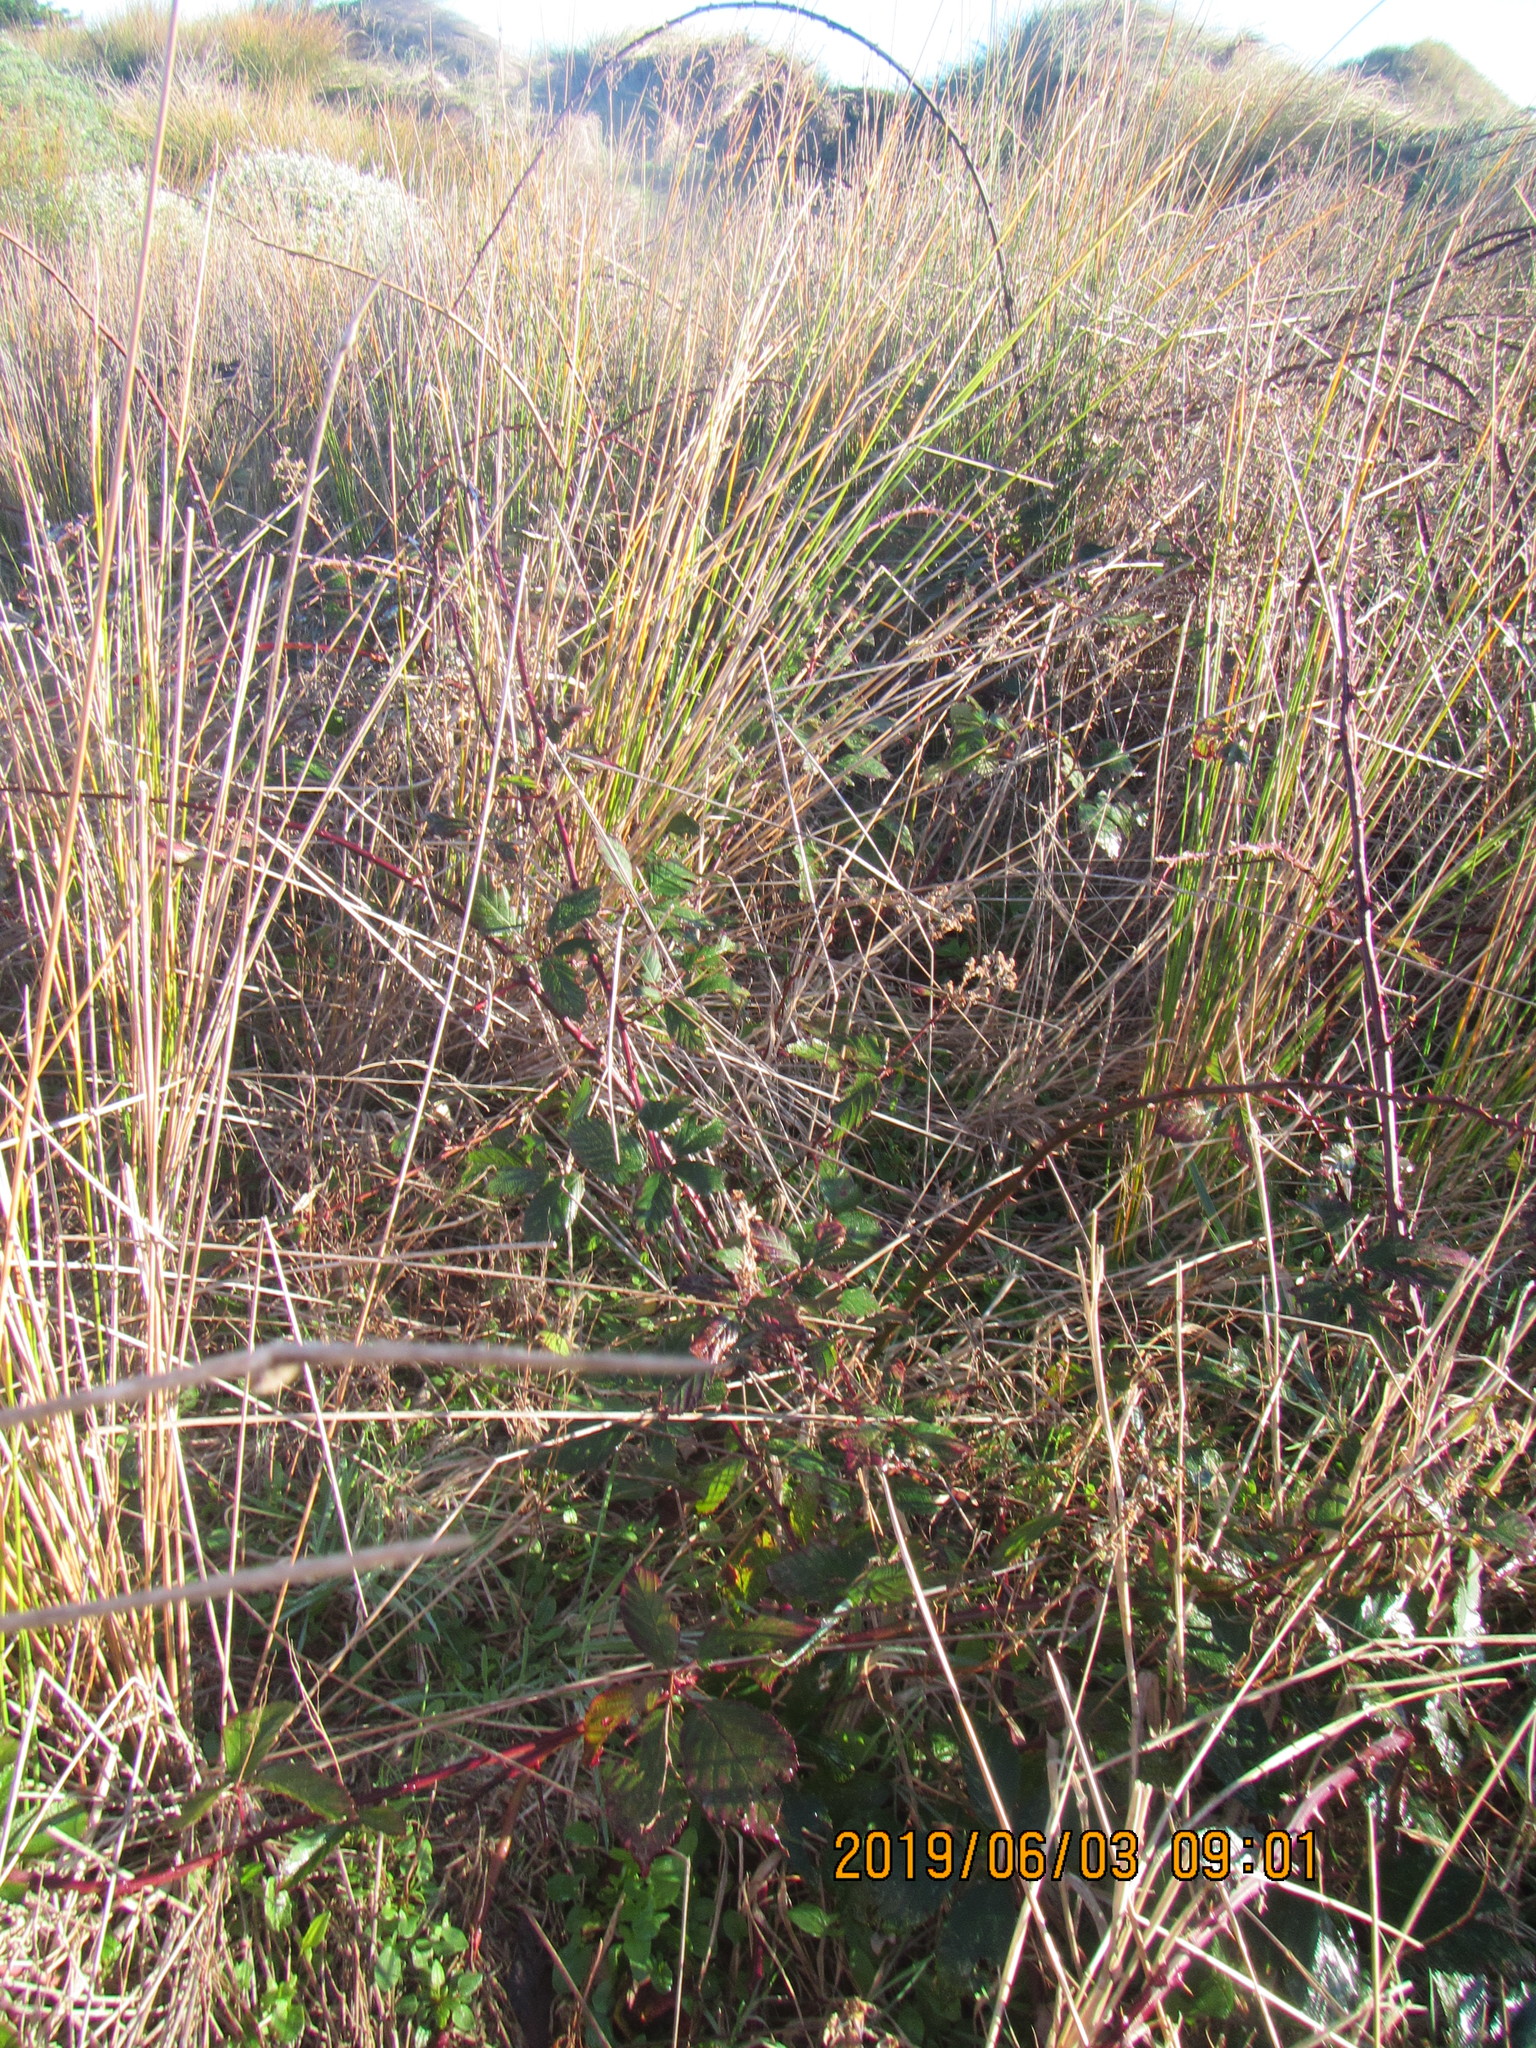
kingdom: Plantae
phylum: Tracheophyta
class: Magnoliopsida
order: Rosales
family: Rosaceae
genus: Rubus
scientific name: Rubus
